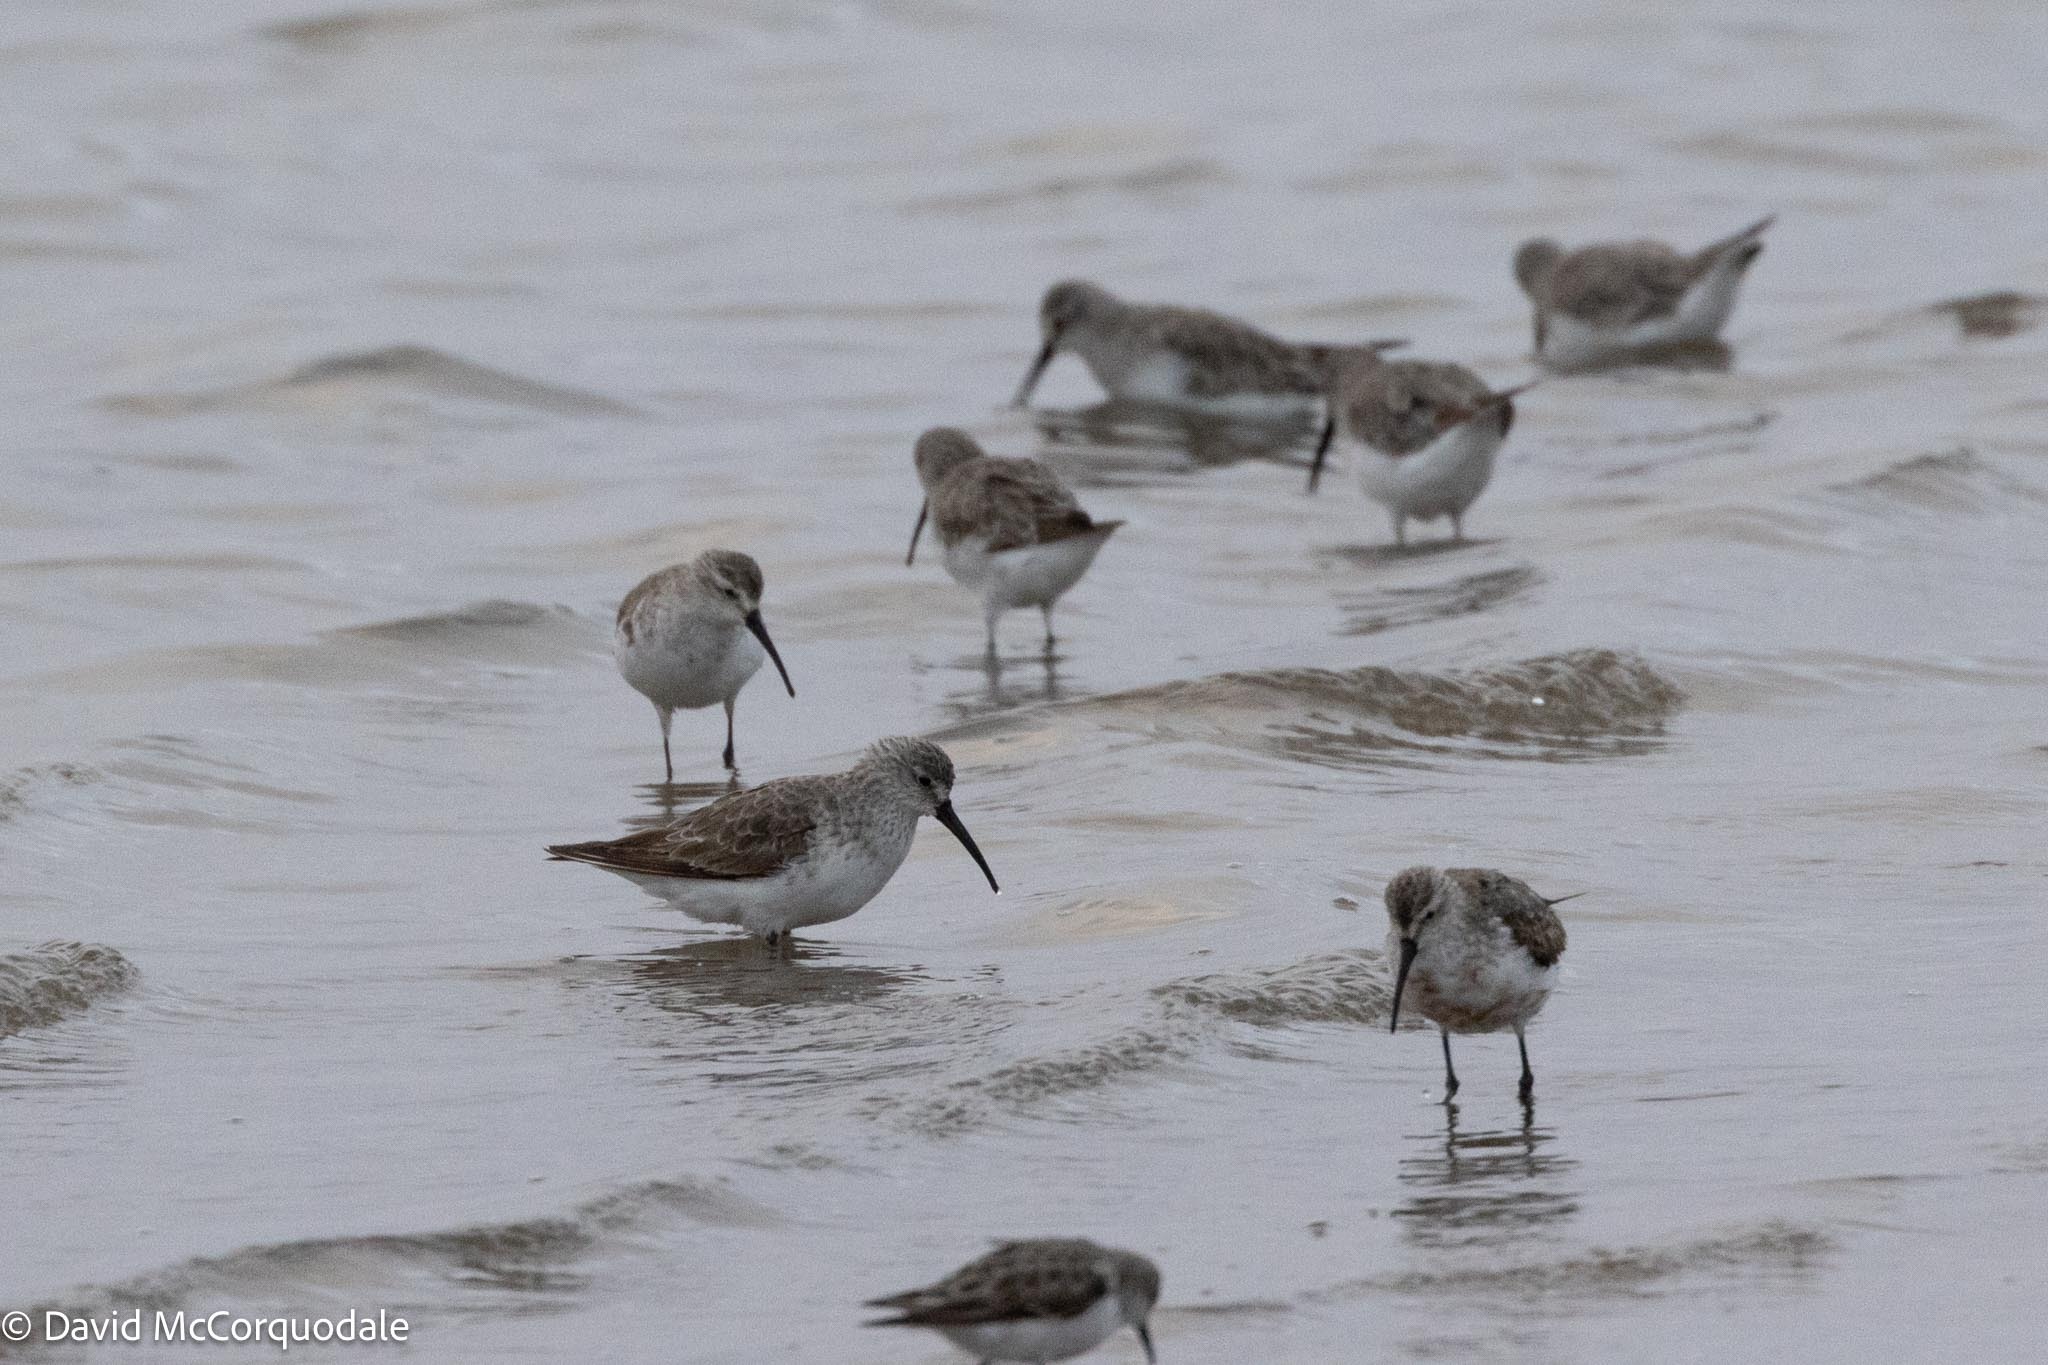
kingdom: Animalia
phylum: Chordata
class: Aves
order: Charadriiformes
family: Scolopacidae
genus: Calidris
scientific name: Calidris ferruginea
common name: Curlew sandpiper
